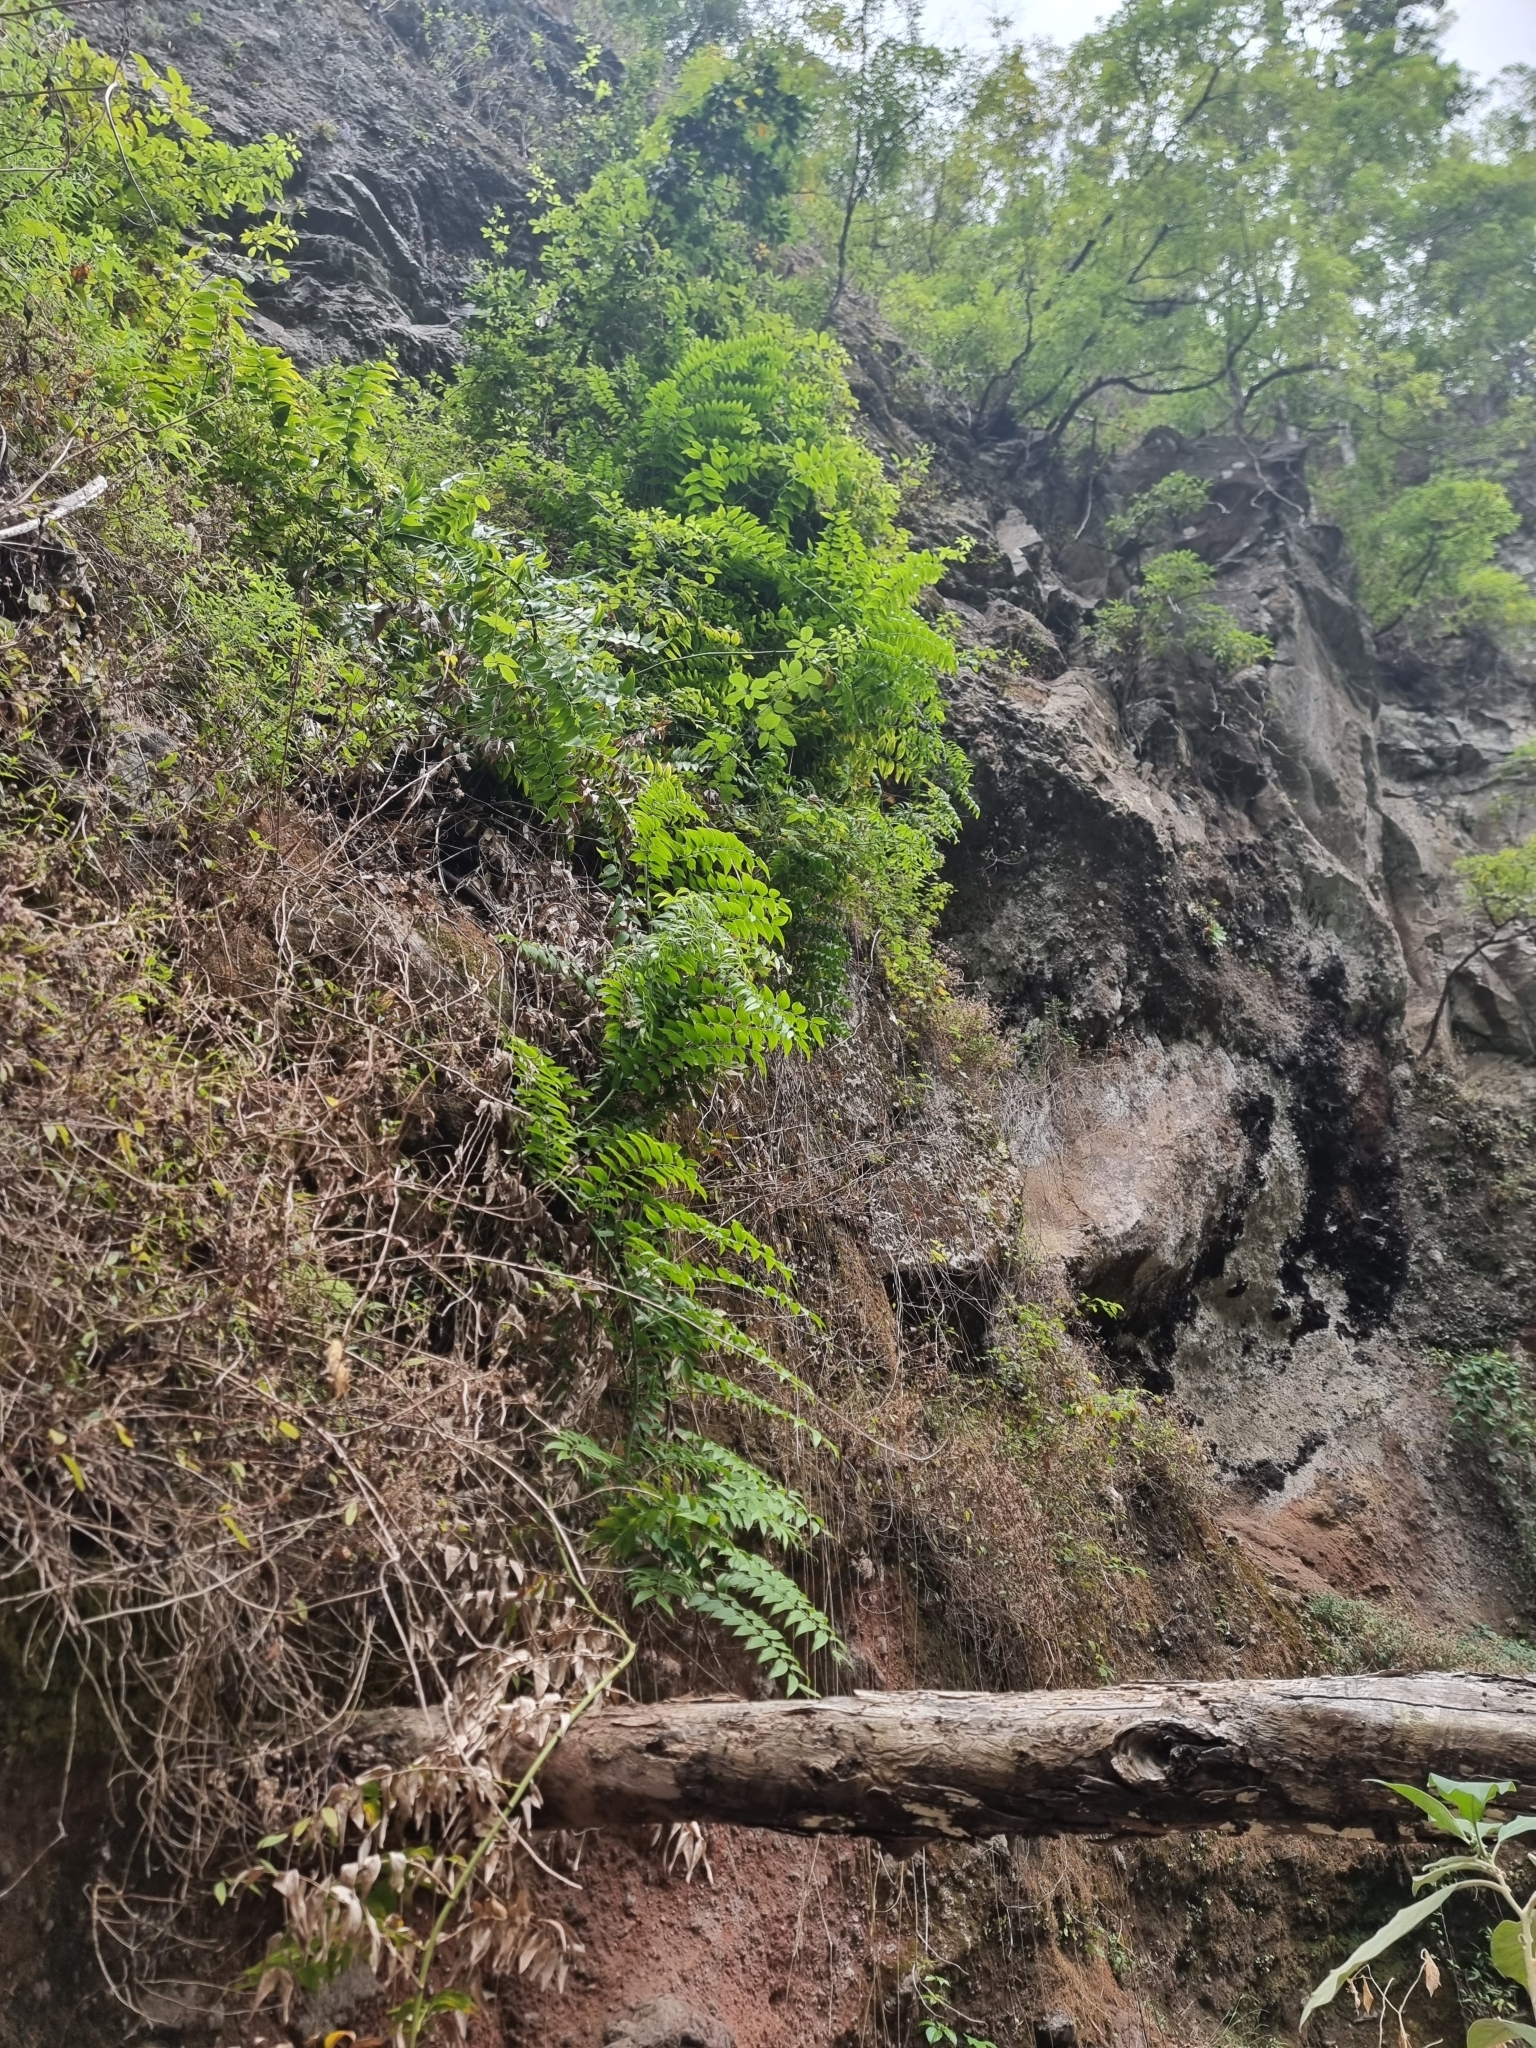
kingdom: Plantae
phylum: Tracheophyta
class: Liliopsida
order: Asparagales
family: Asparagaceae
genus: Semele
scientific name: Semele androgyna
